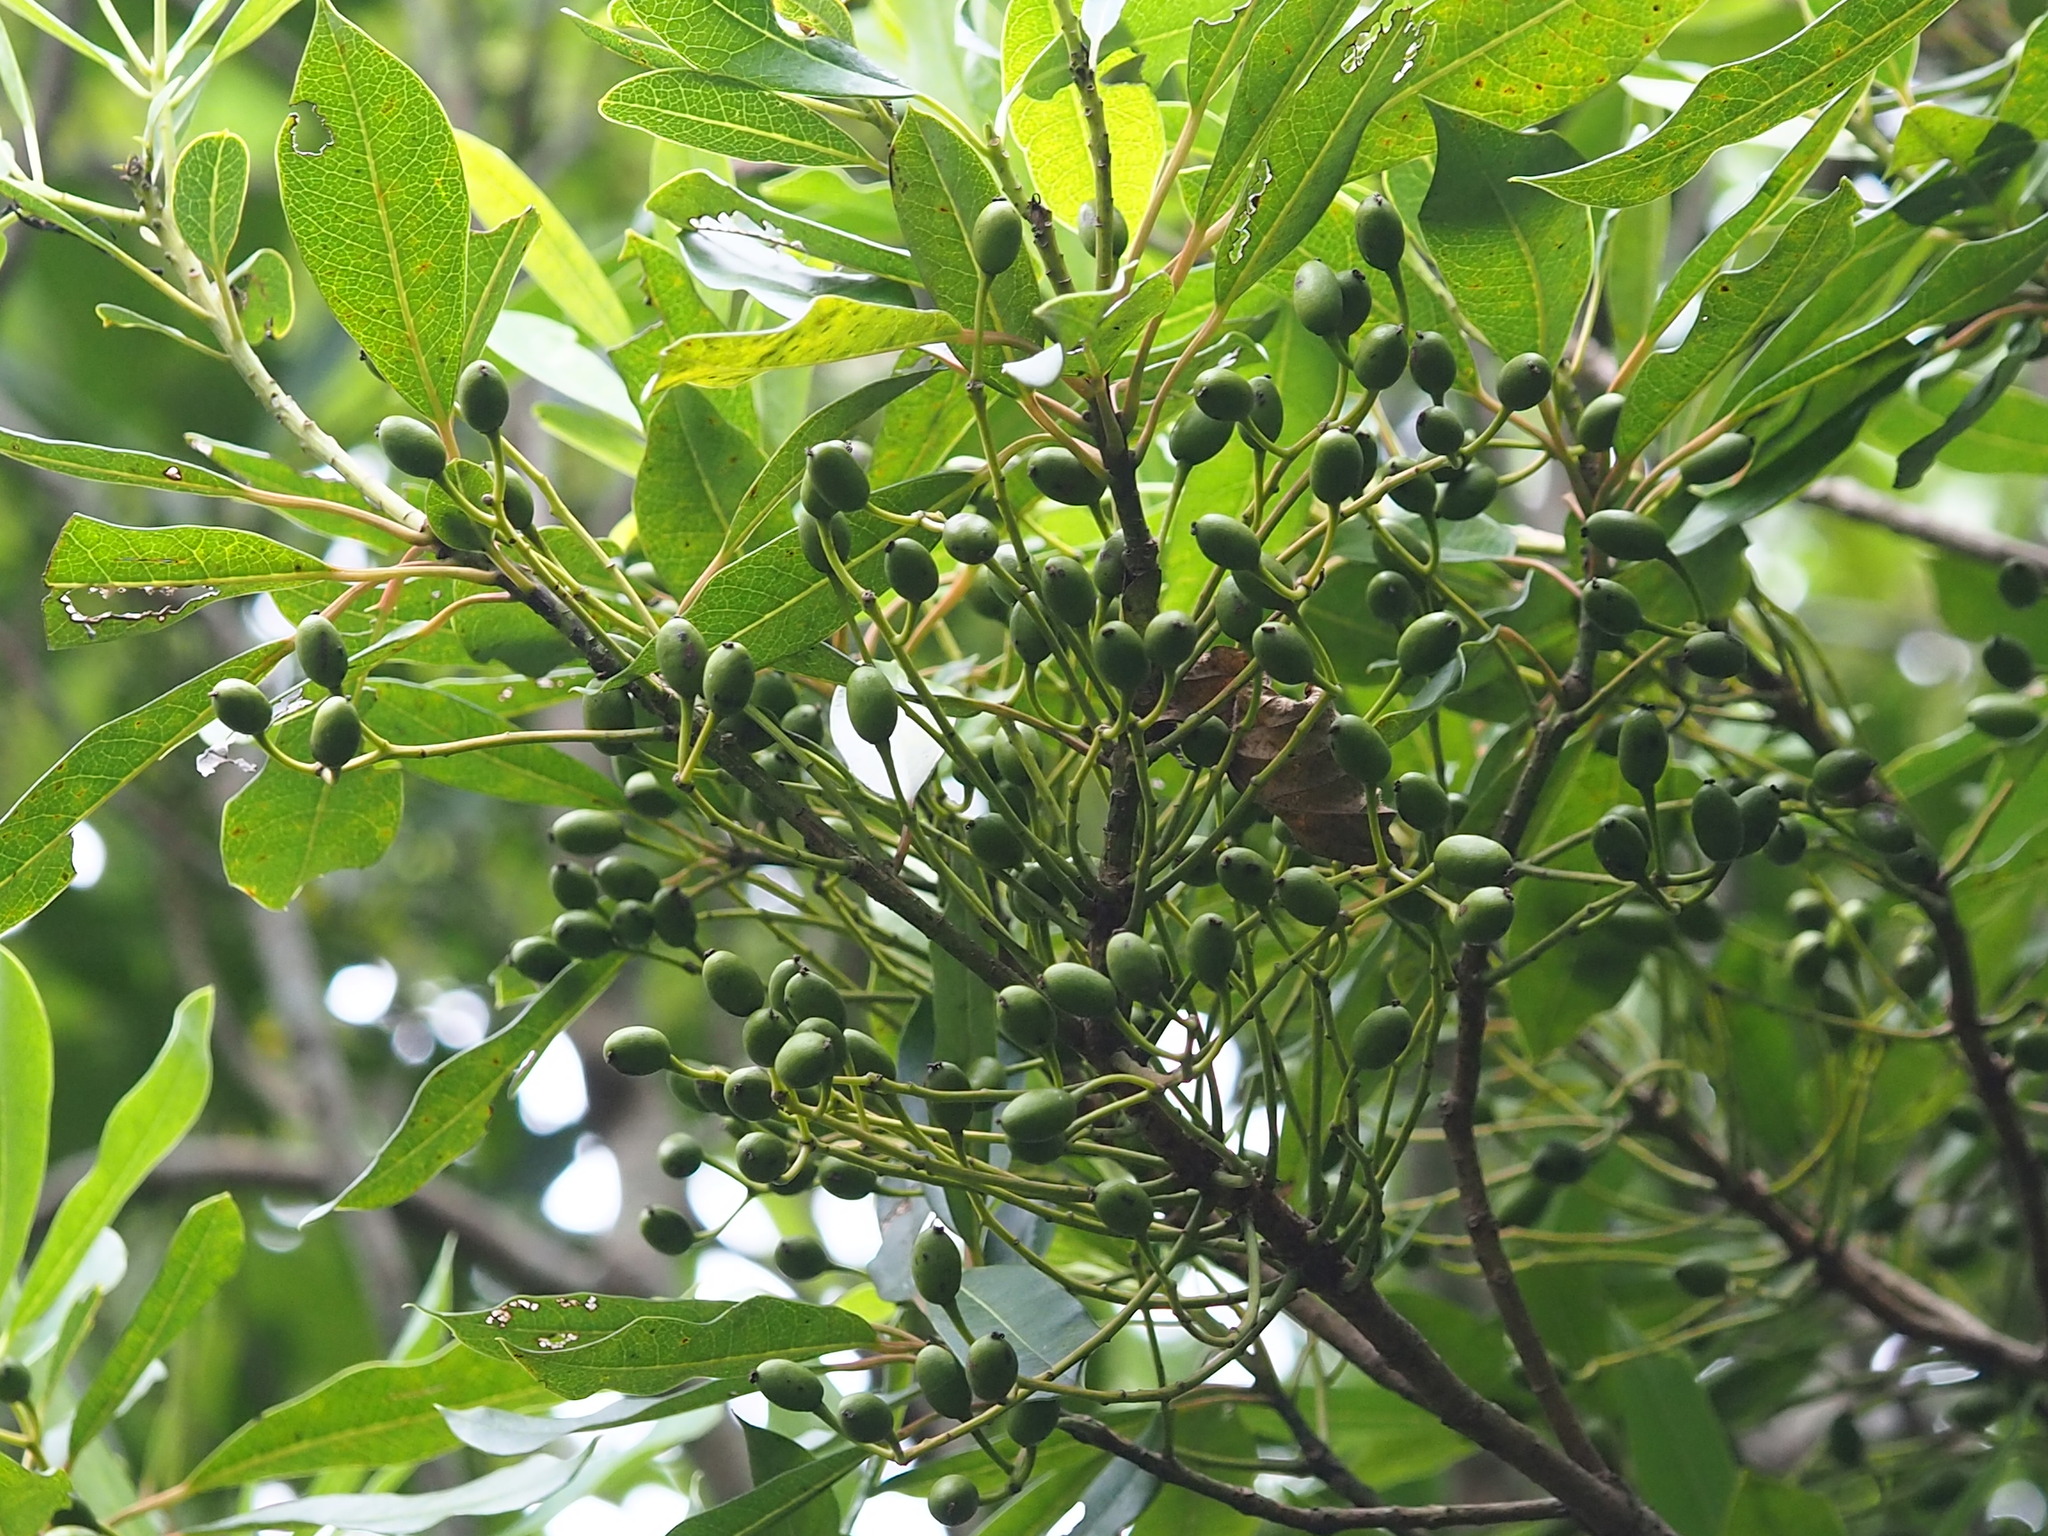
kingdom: Plantae
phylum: Tracheophyta
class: Magnoliopsida
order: Saxifragales
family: Daphniphyllaceae
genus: Daphniphyllum
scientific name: Daphniphyllum pentandrum
